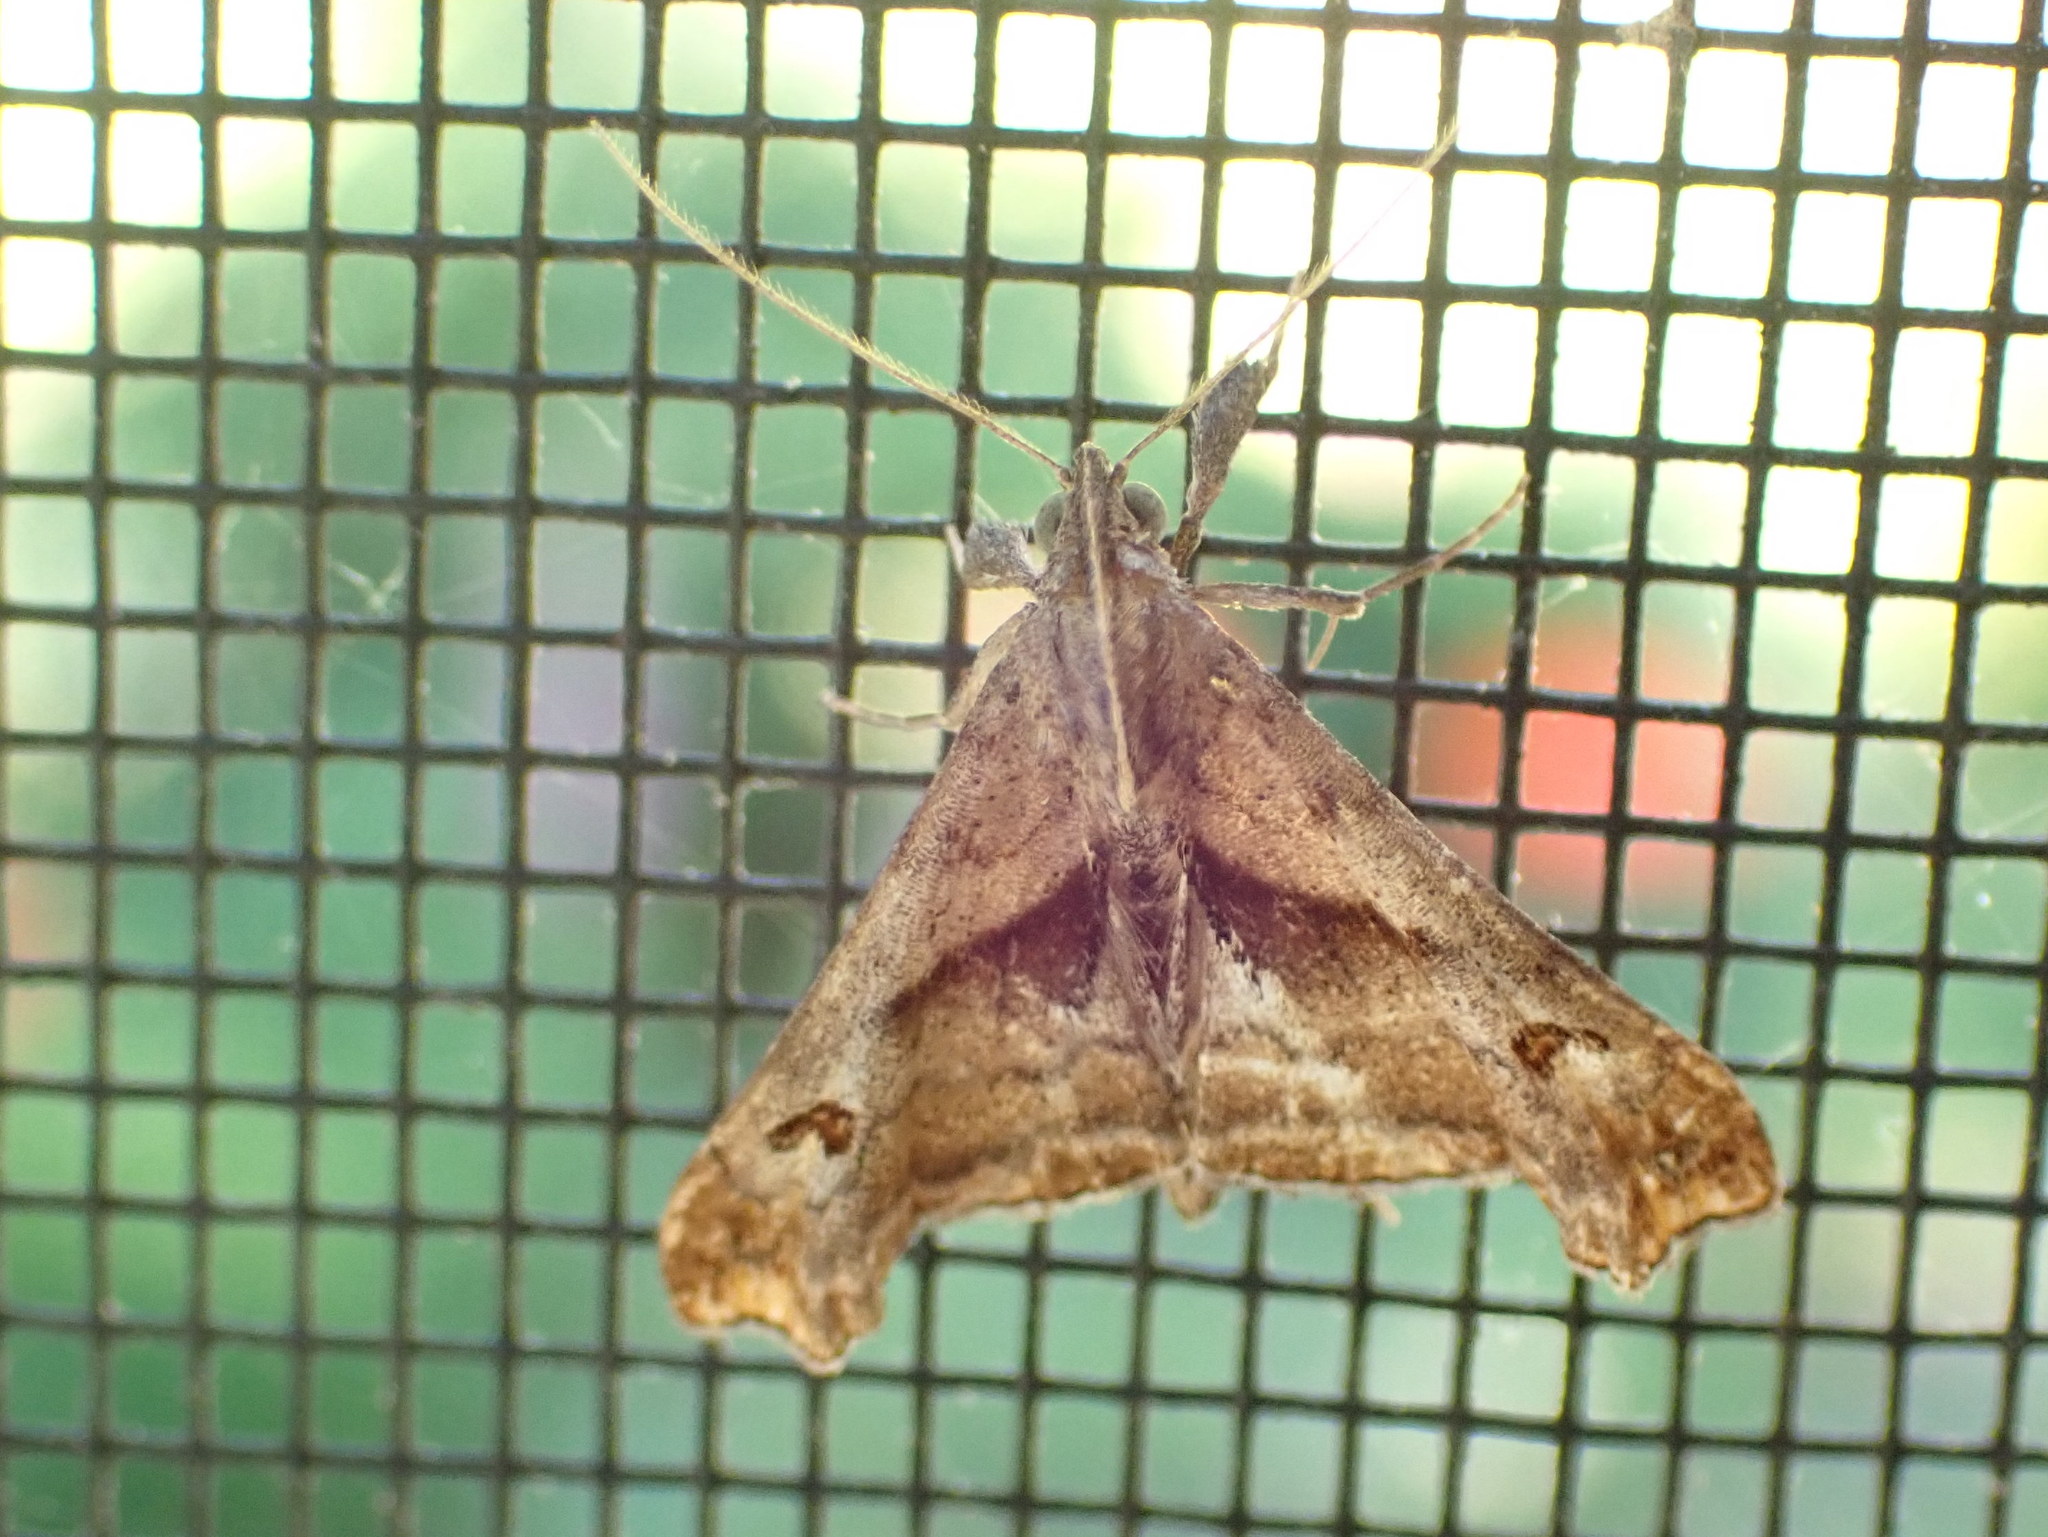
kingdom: Animalia
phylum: Arthropoda
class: Insecta
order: Lepidoptera
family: Erebidae
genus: Palthis
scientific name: Palthis angulalis
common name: Dark-spotted palthis moth
